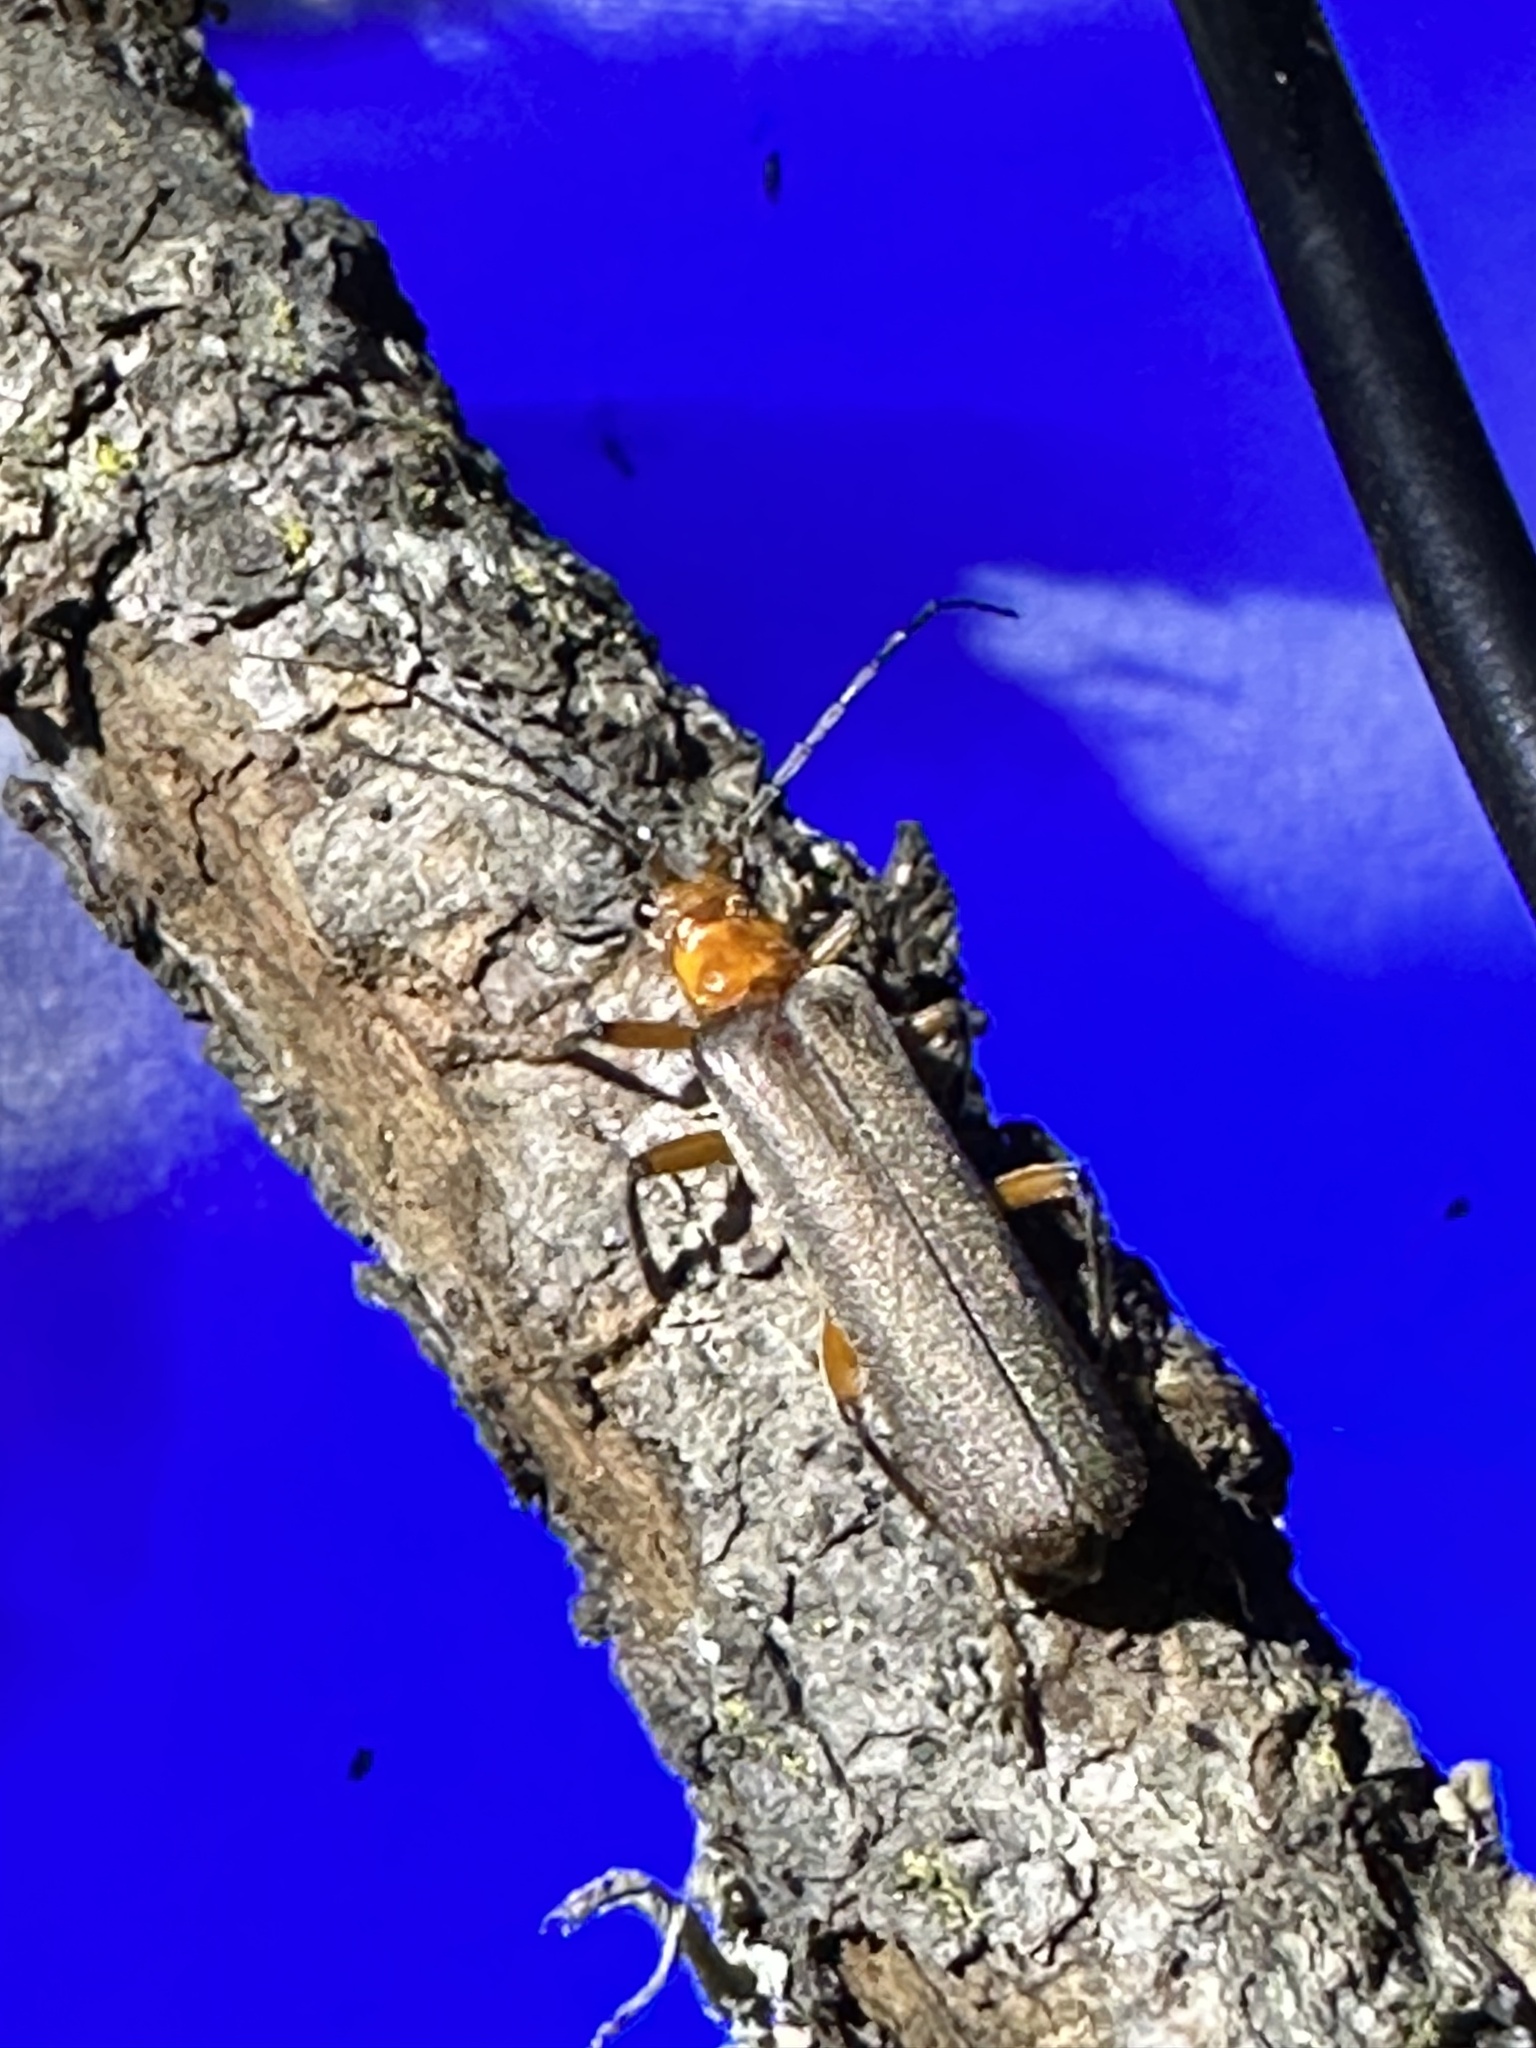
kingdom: Animalia
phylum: Arthropoda
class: Insecta
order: Coleoptera
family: Cantharidae
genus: Pacificanthia
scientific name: Pacificanthia consors
